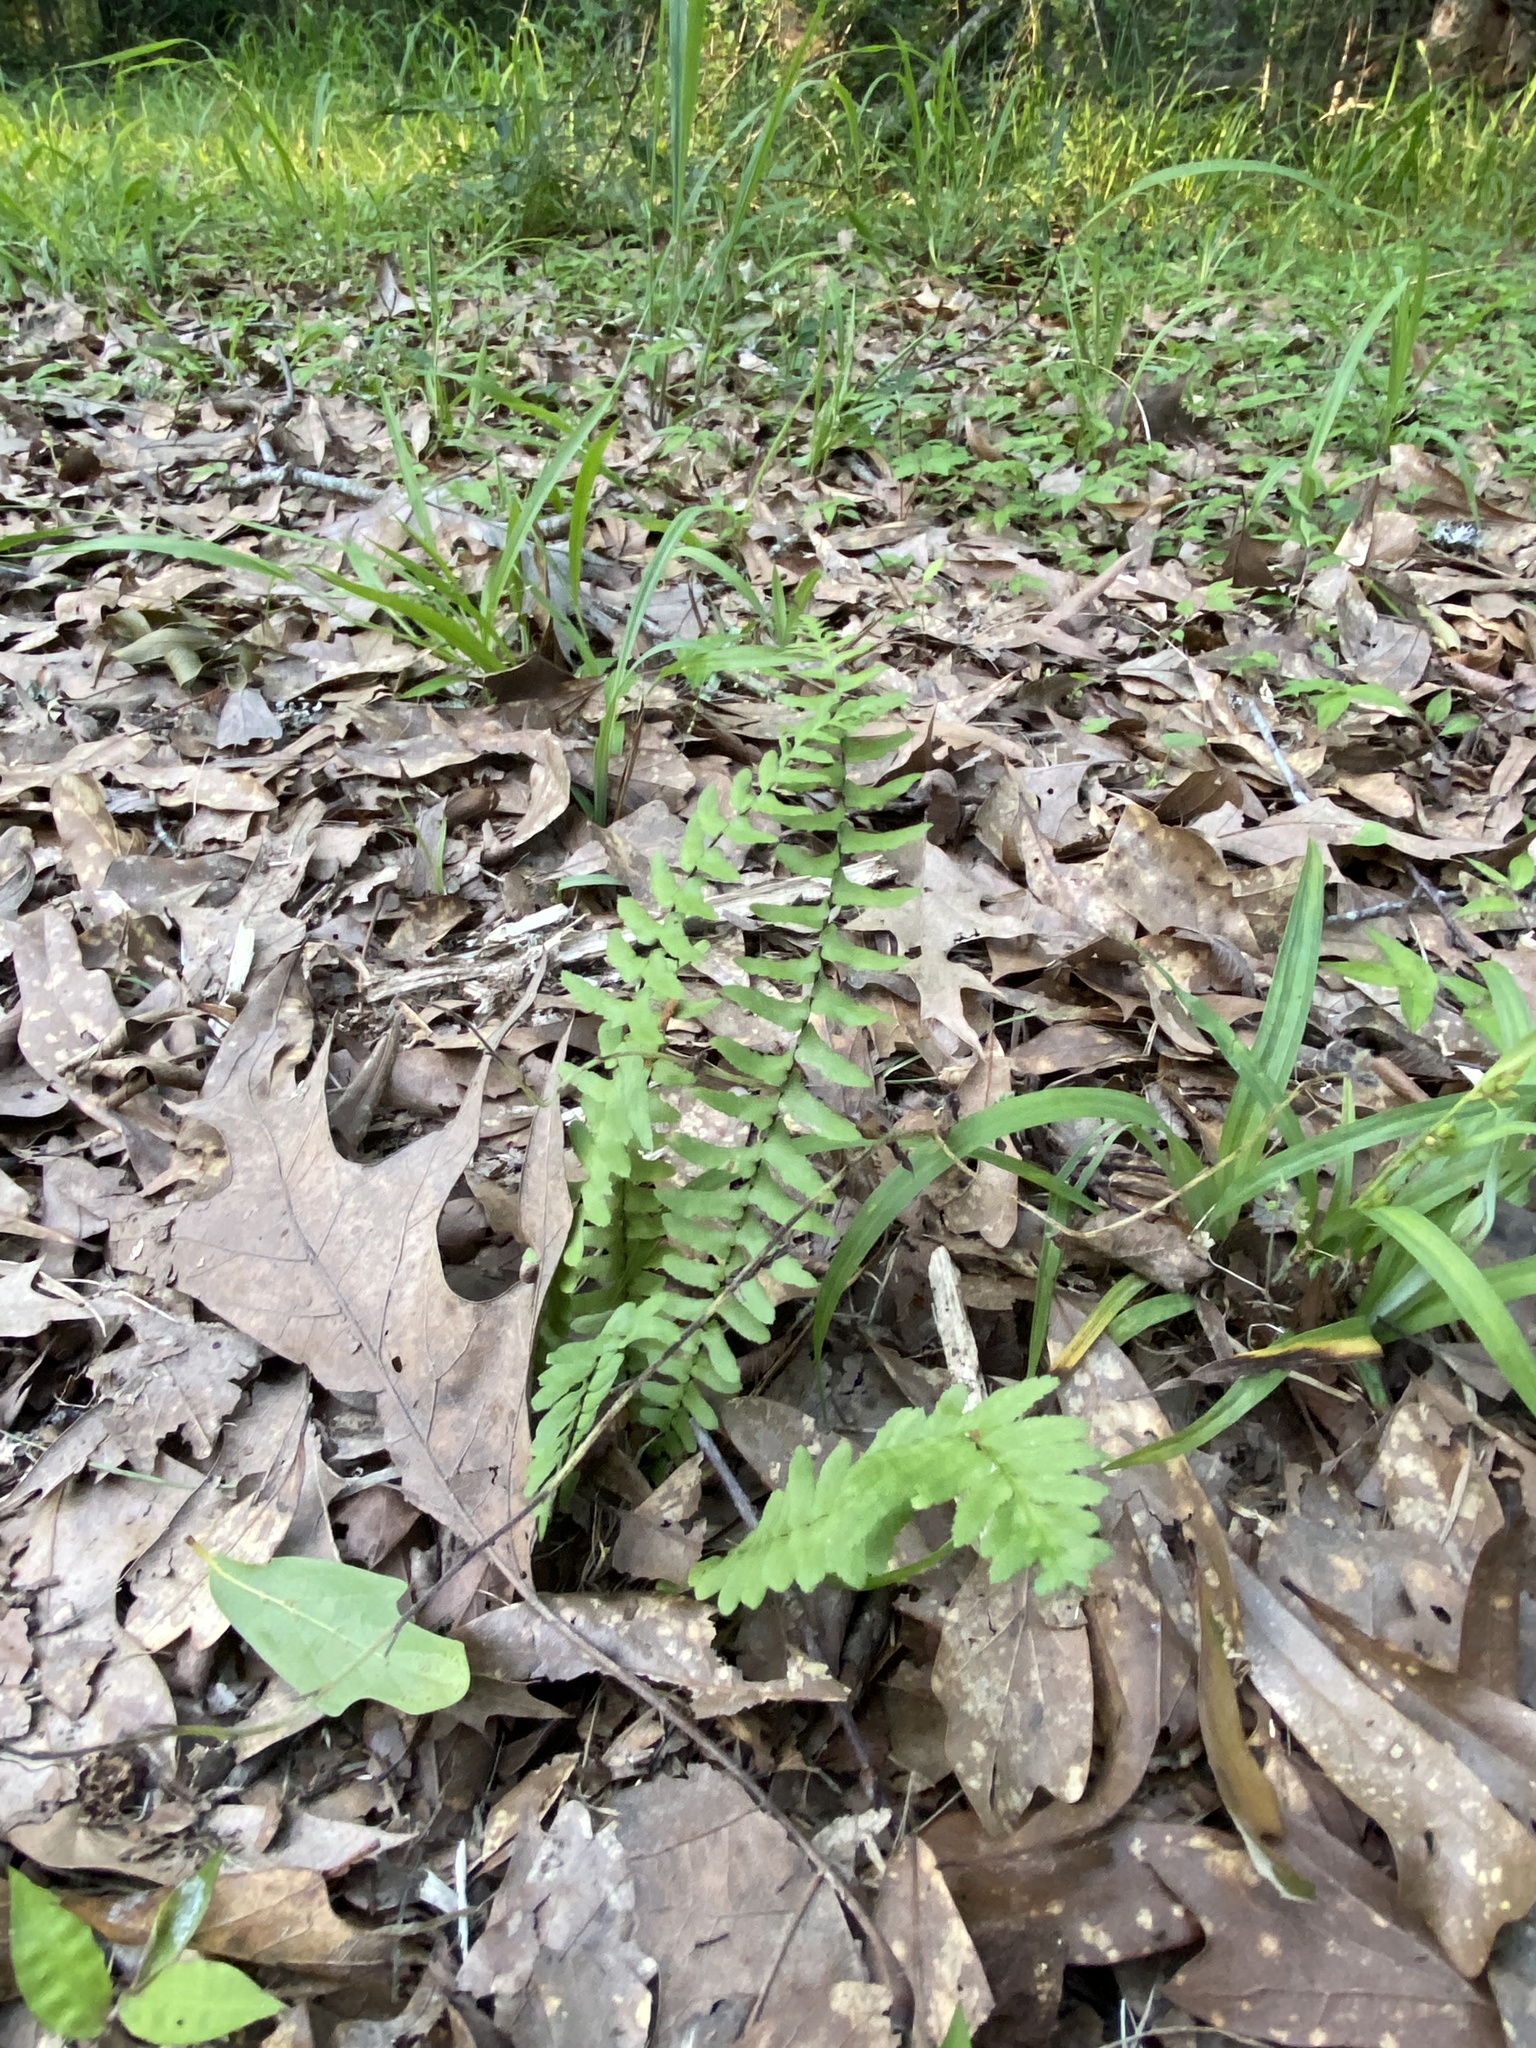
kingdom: Plantae
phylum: Tracheophyta
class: Polypodiopsida
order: Polypodiales
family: Aspleniaceae
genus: Asplenium
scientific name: Asplenium platyneuron
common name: Ebony spleenwort
